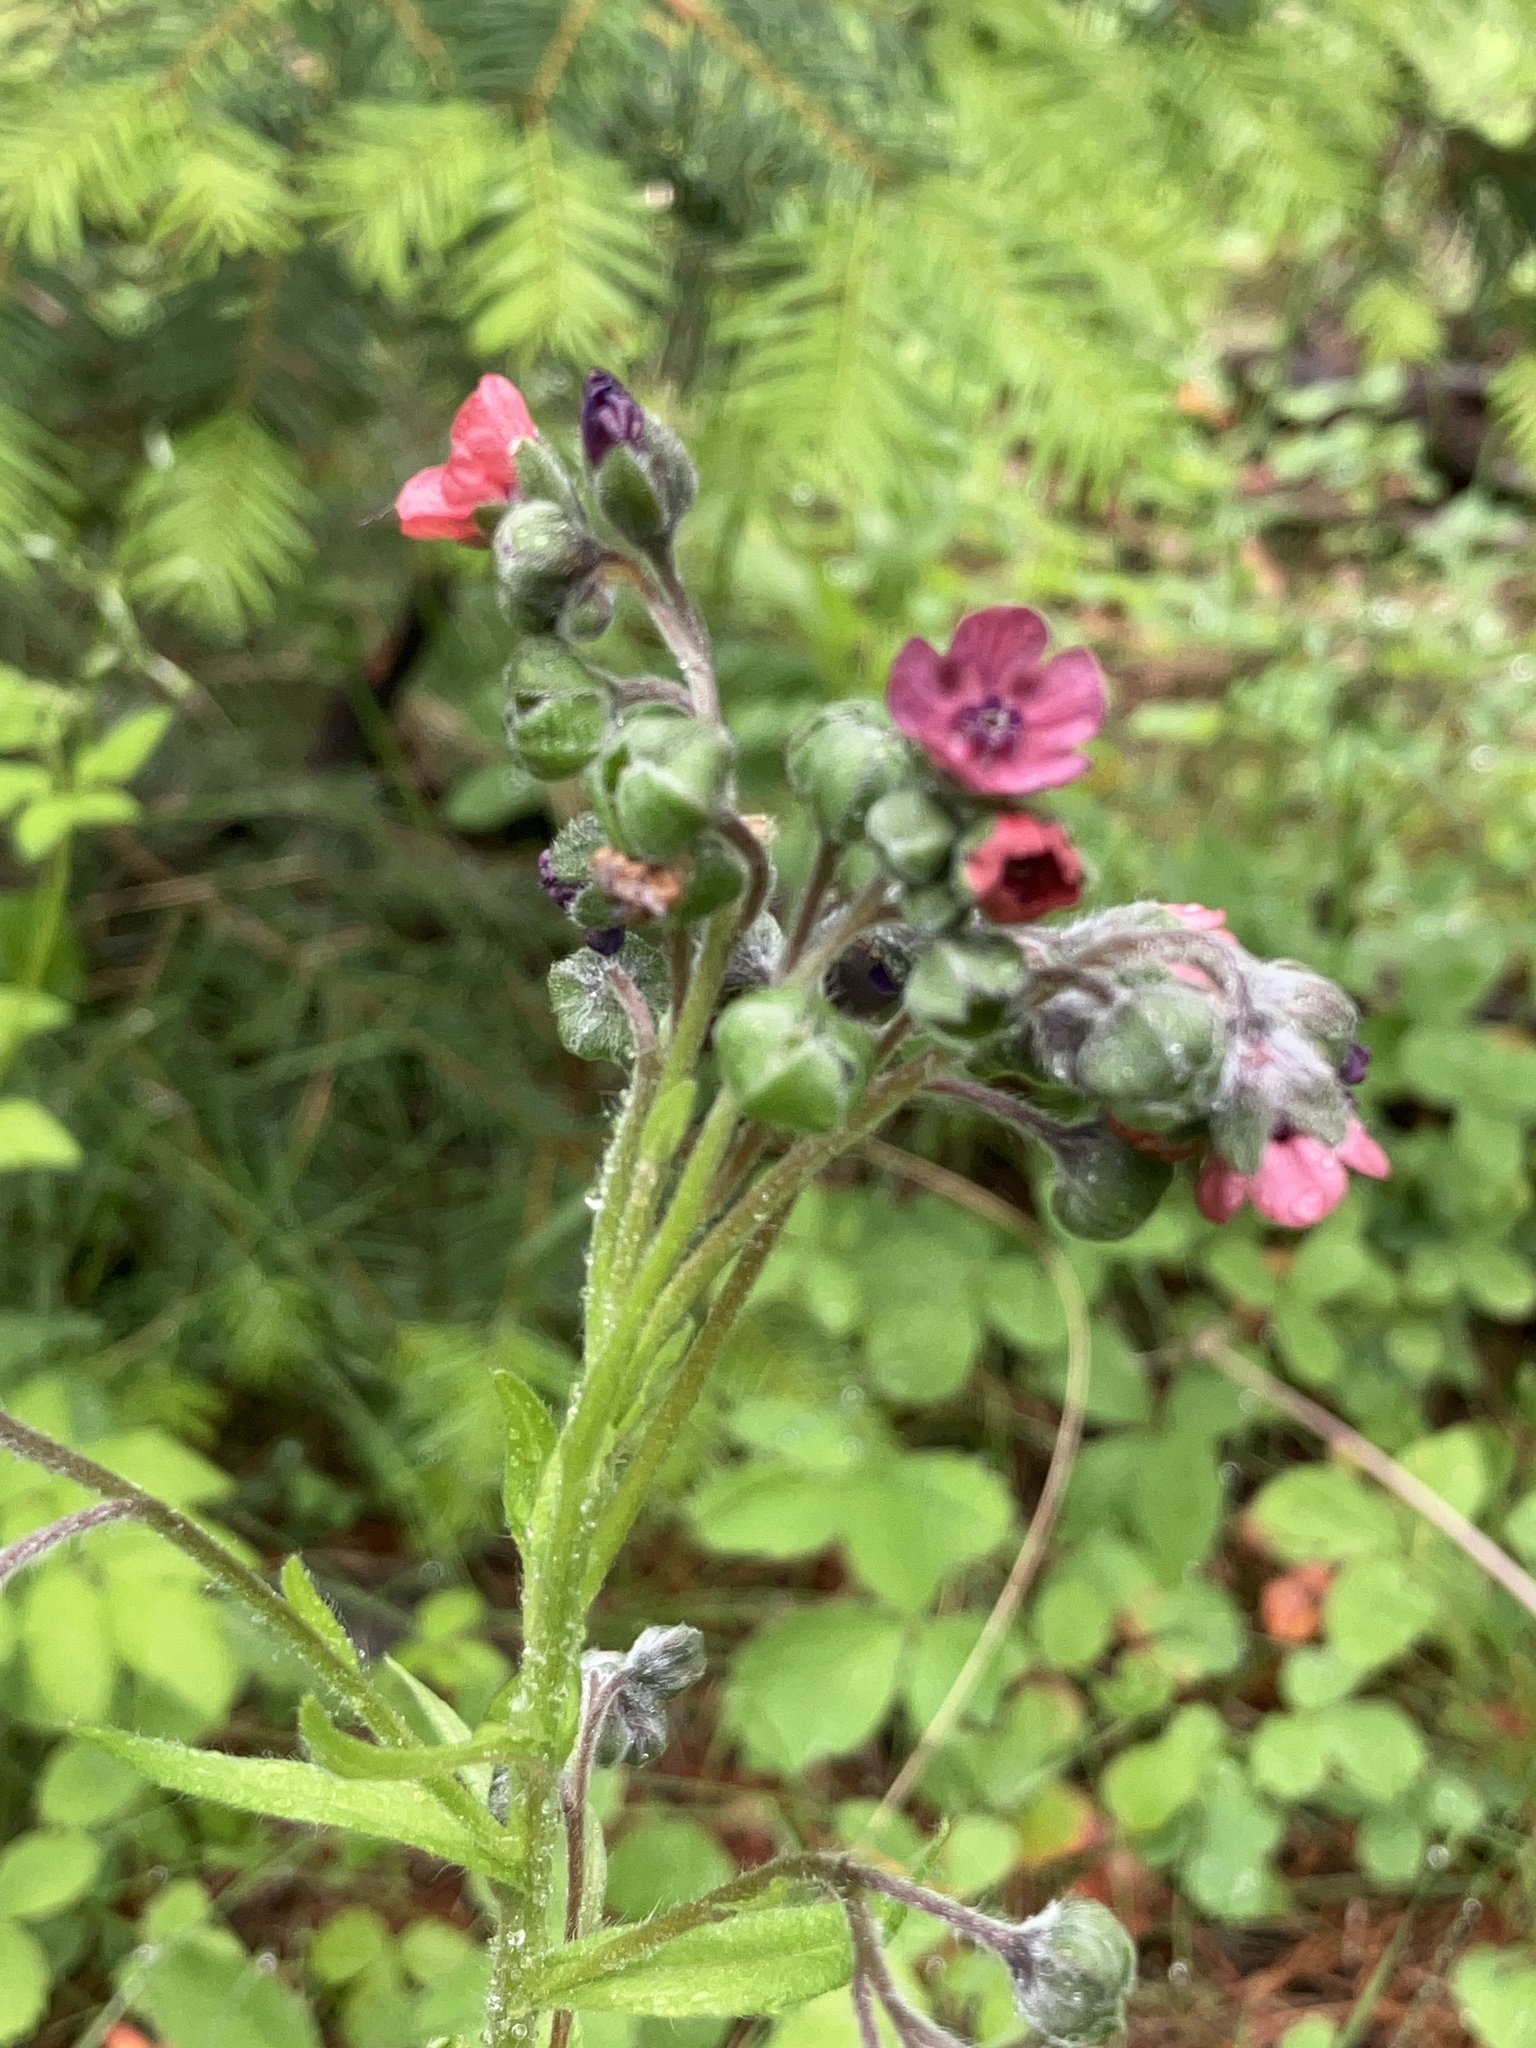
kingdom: Plantae
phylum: Tracheophyta
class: Magnoliopsida
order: Boraginales
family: Boraginaceae
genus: Cynoglossum
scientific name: Cynoglossum officinale
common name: Hound's-tongue
